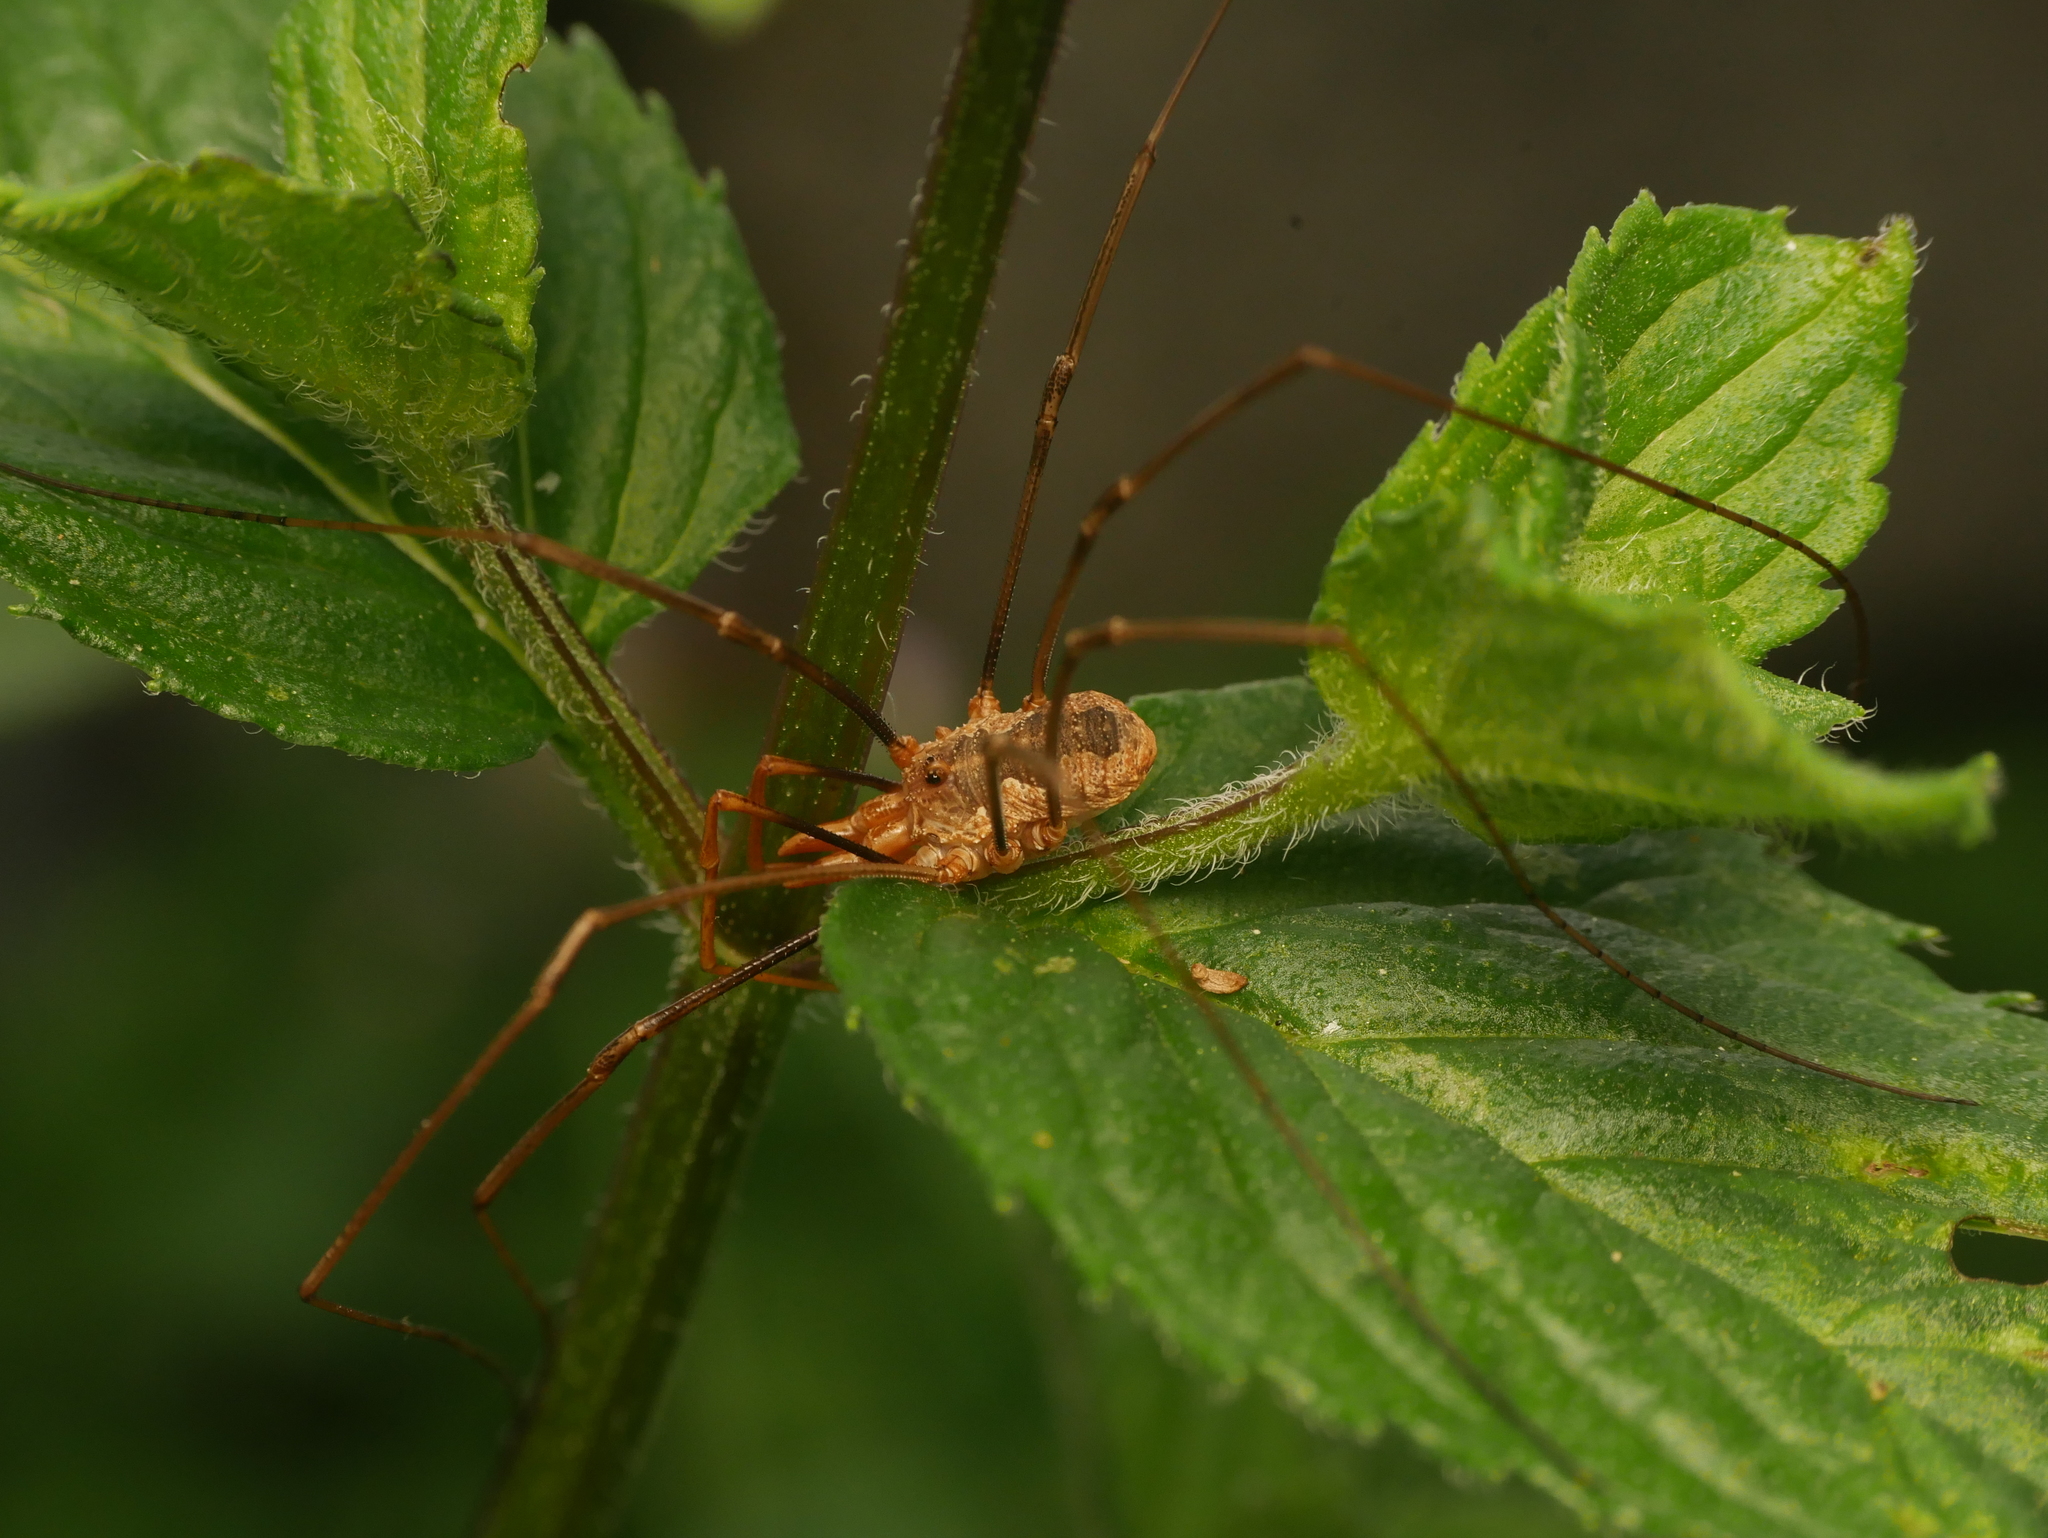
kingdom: Animalia
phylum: Arthropoda
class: Arachnida
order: Opiliones
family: Phalangiidae
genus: Phalangium
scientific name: Phalangium opilio
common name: Daddy longleg
